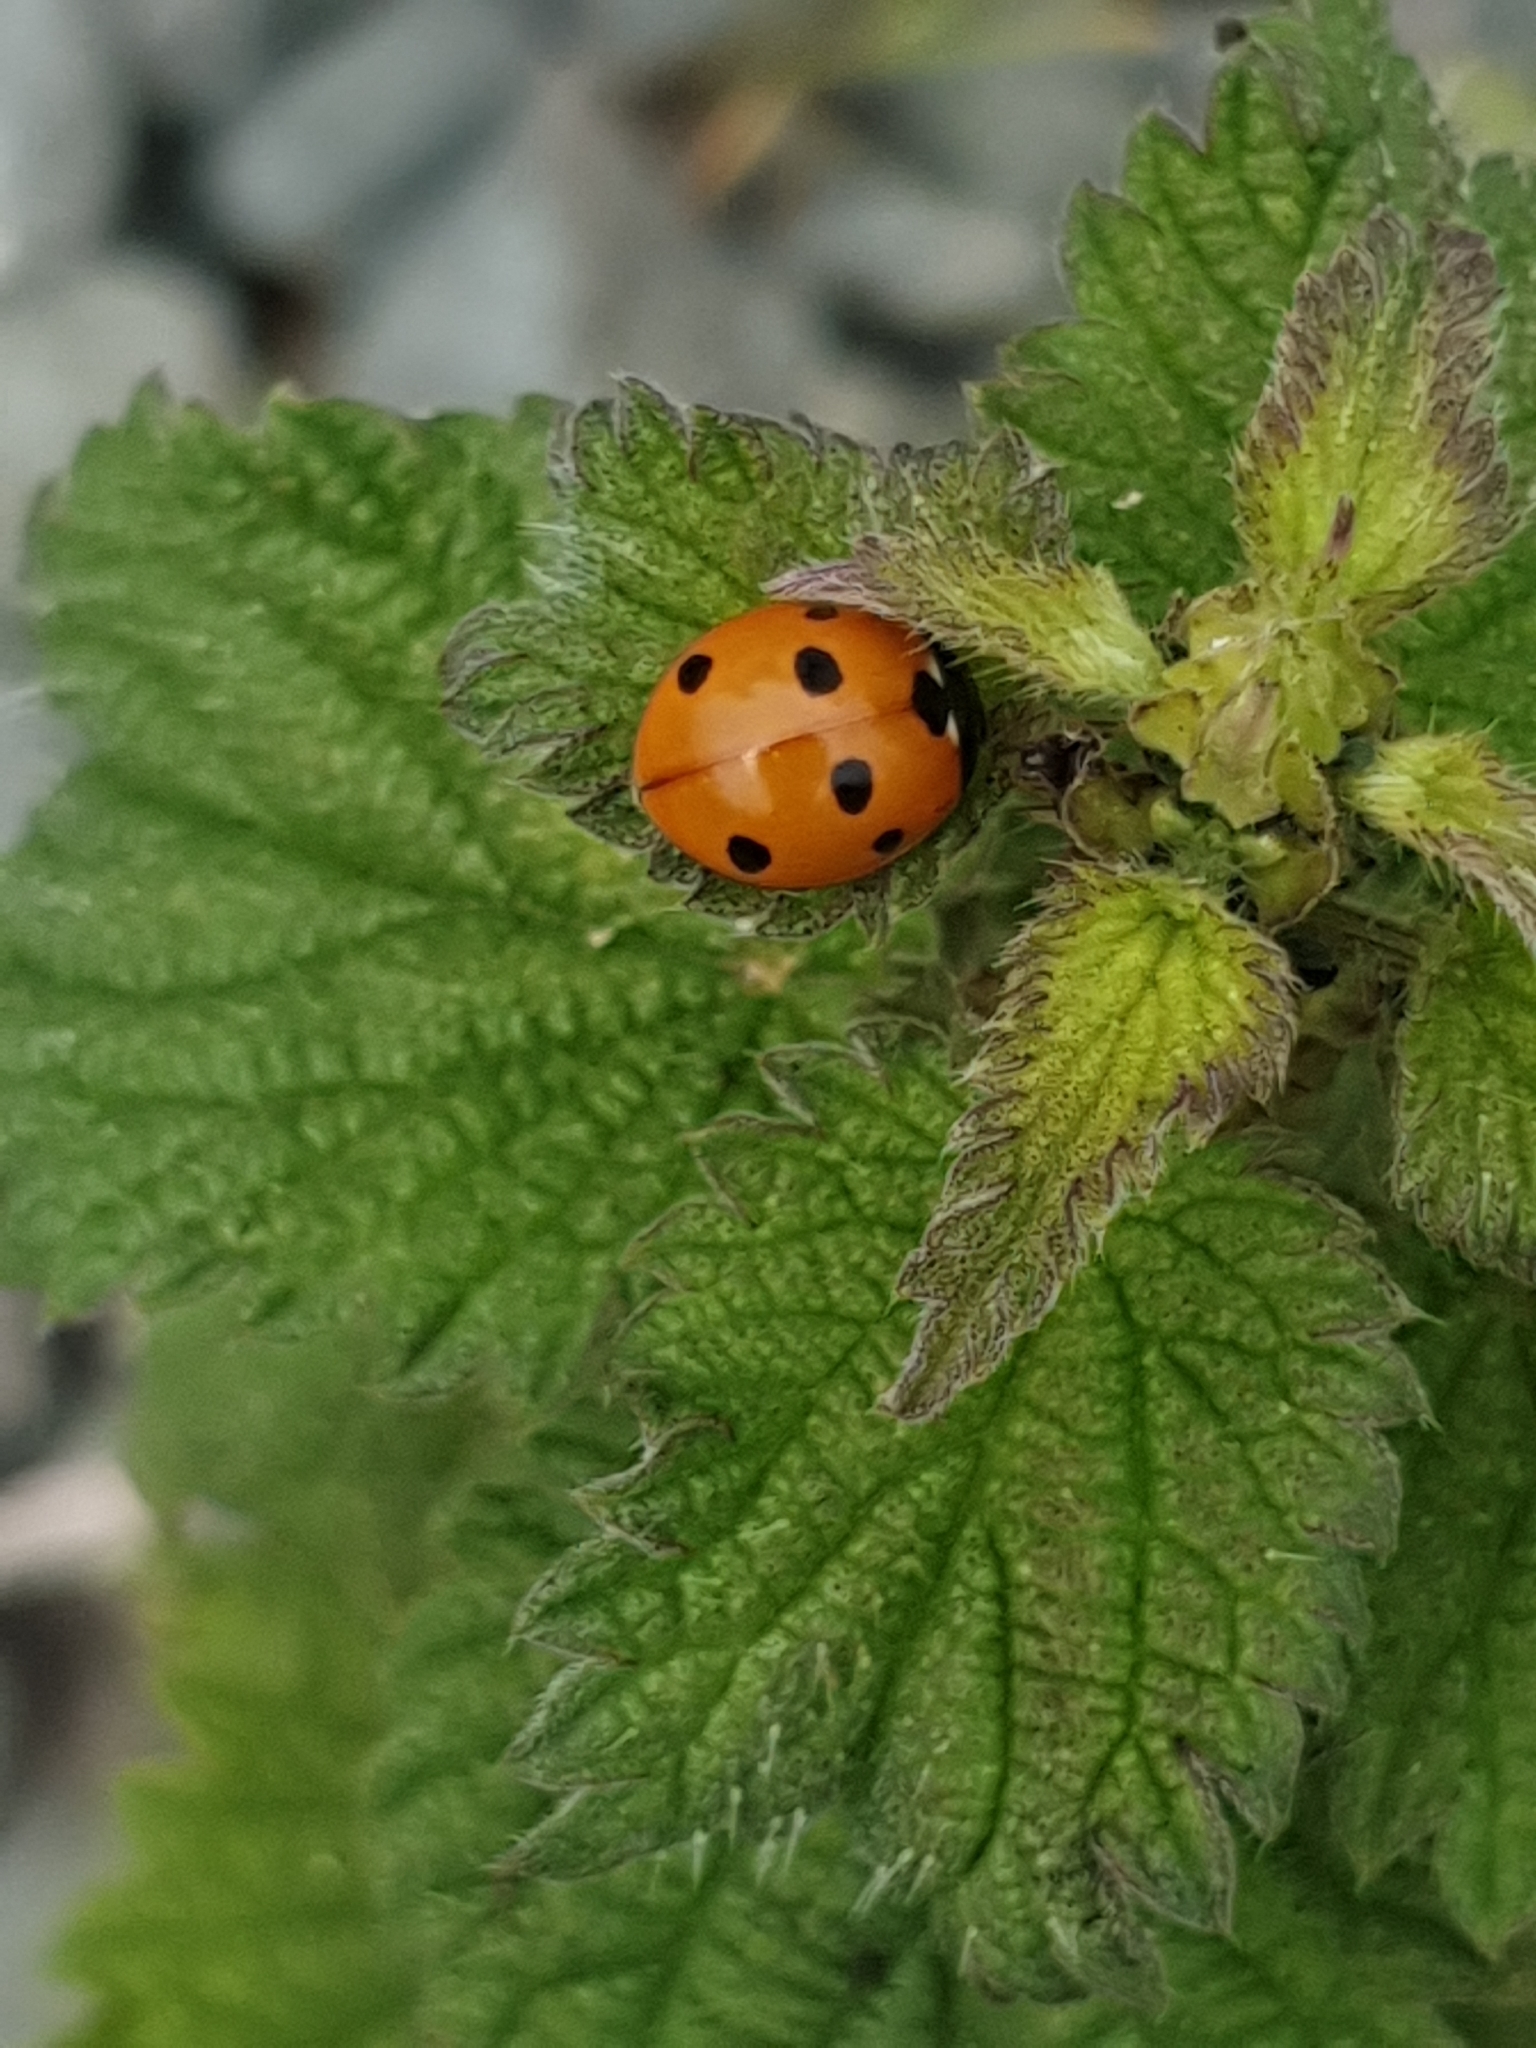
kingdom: Animalia
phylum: Arthropoda
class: Insecta
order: Coleoptera
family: Coccinellidae
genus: Coccinella
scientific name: Coccinella septempunctata
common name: Sevenspotted lady beetle
